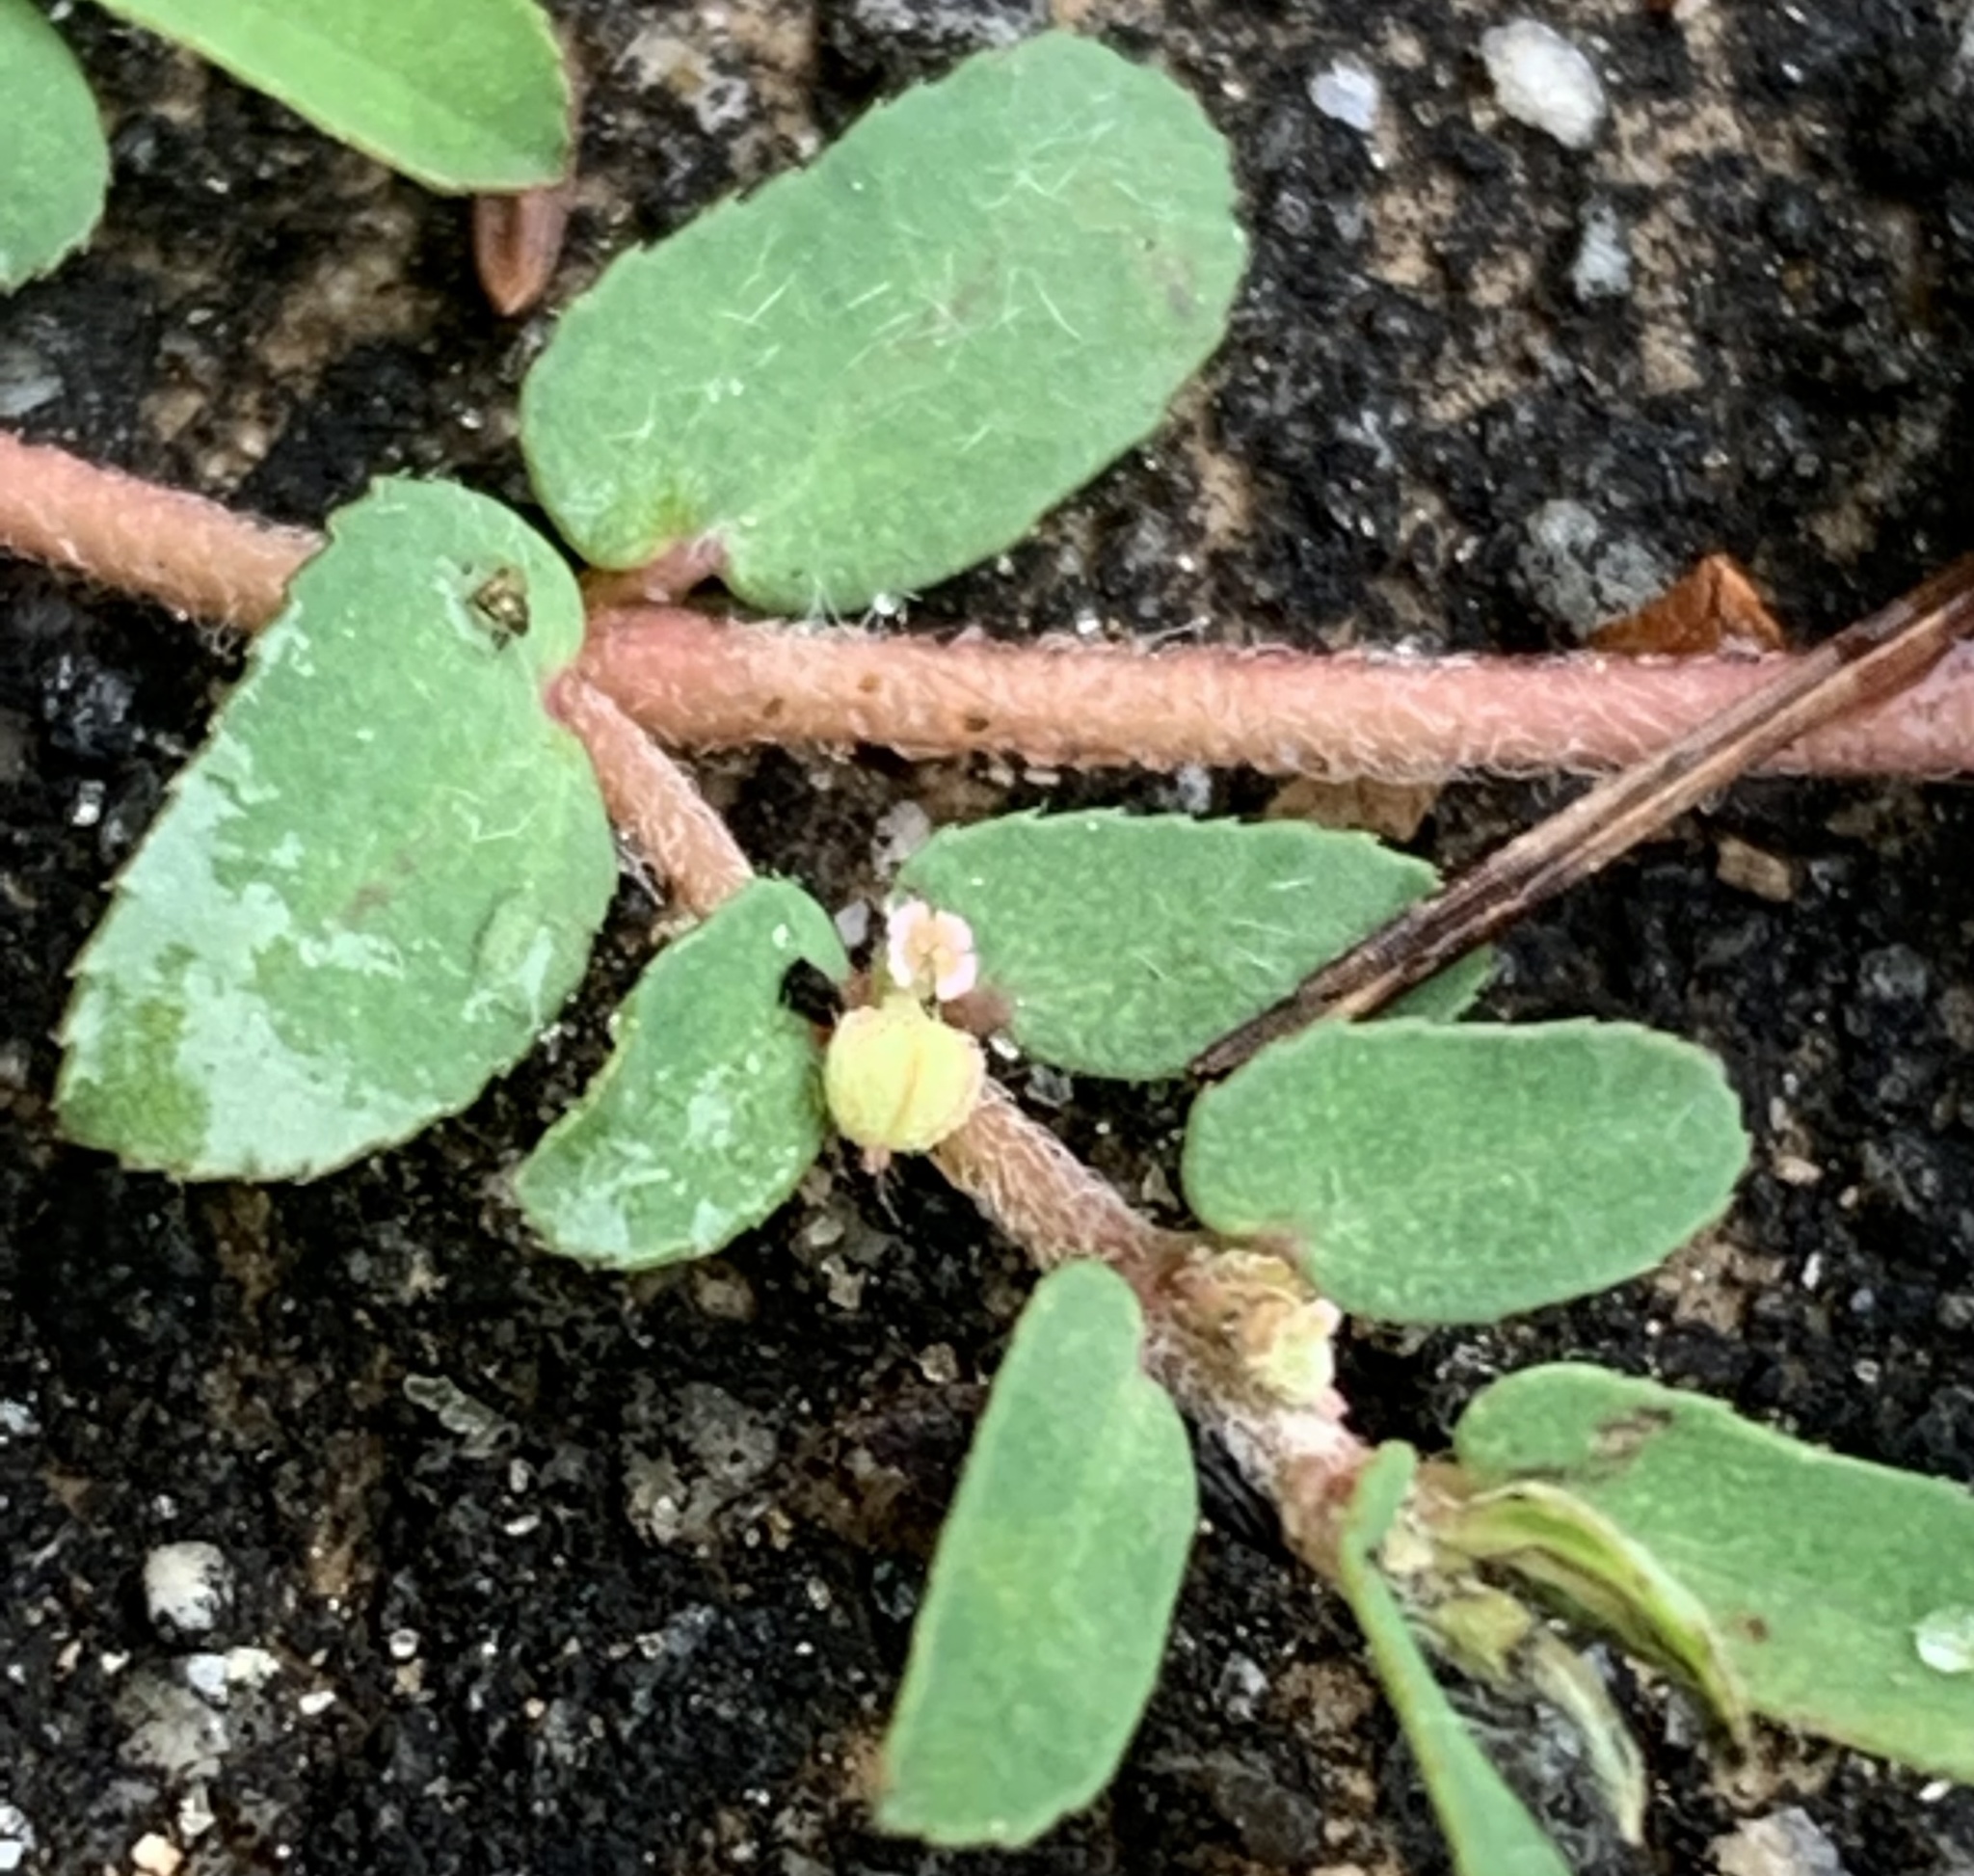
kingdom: Plantae
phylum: Tracheophyta
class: Magnoliopsida
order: Malpighiales
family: Euphorbiaceae
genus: Euphorbia
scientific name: Euphorbia maculata
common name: Spotted spurge
